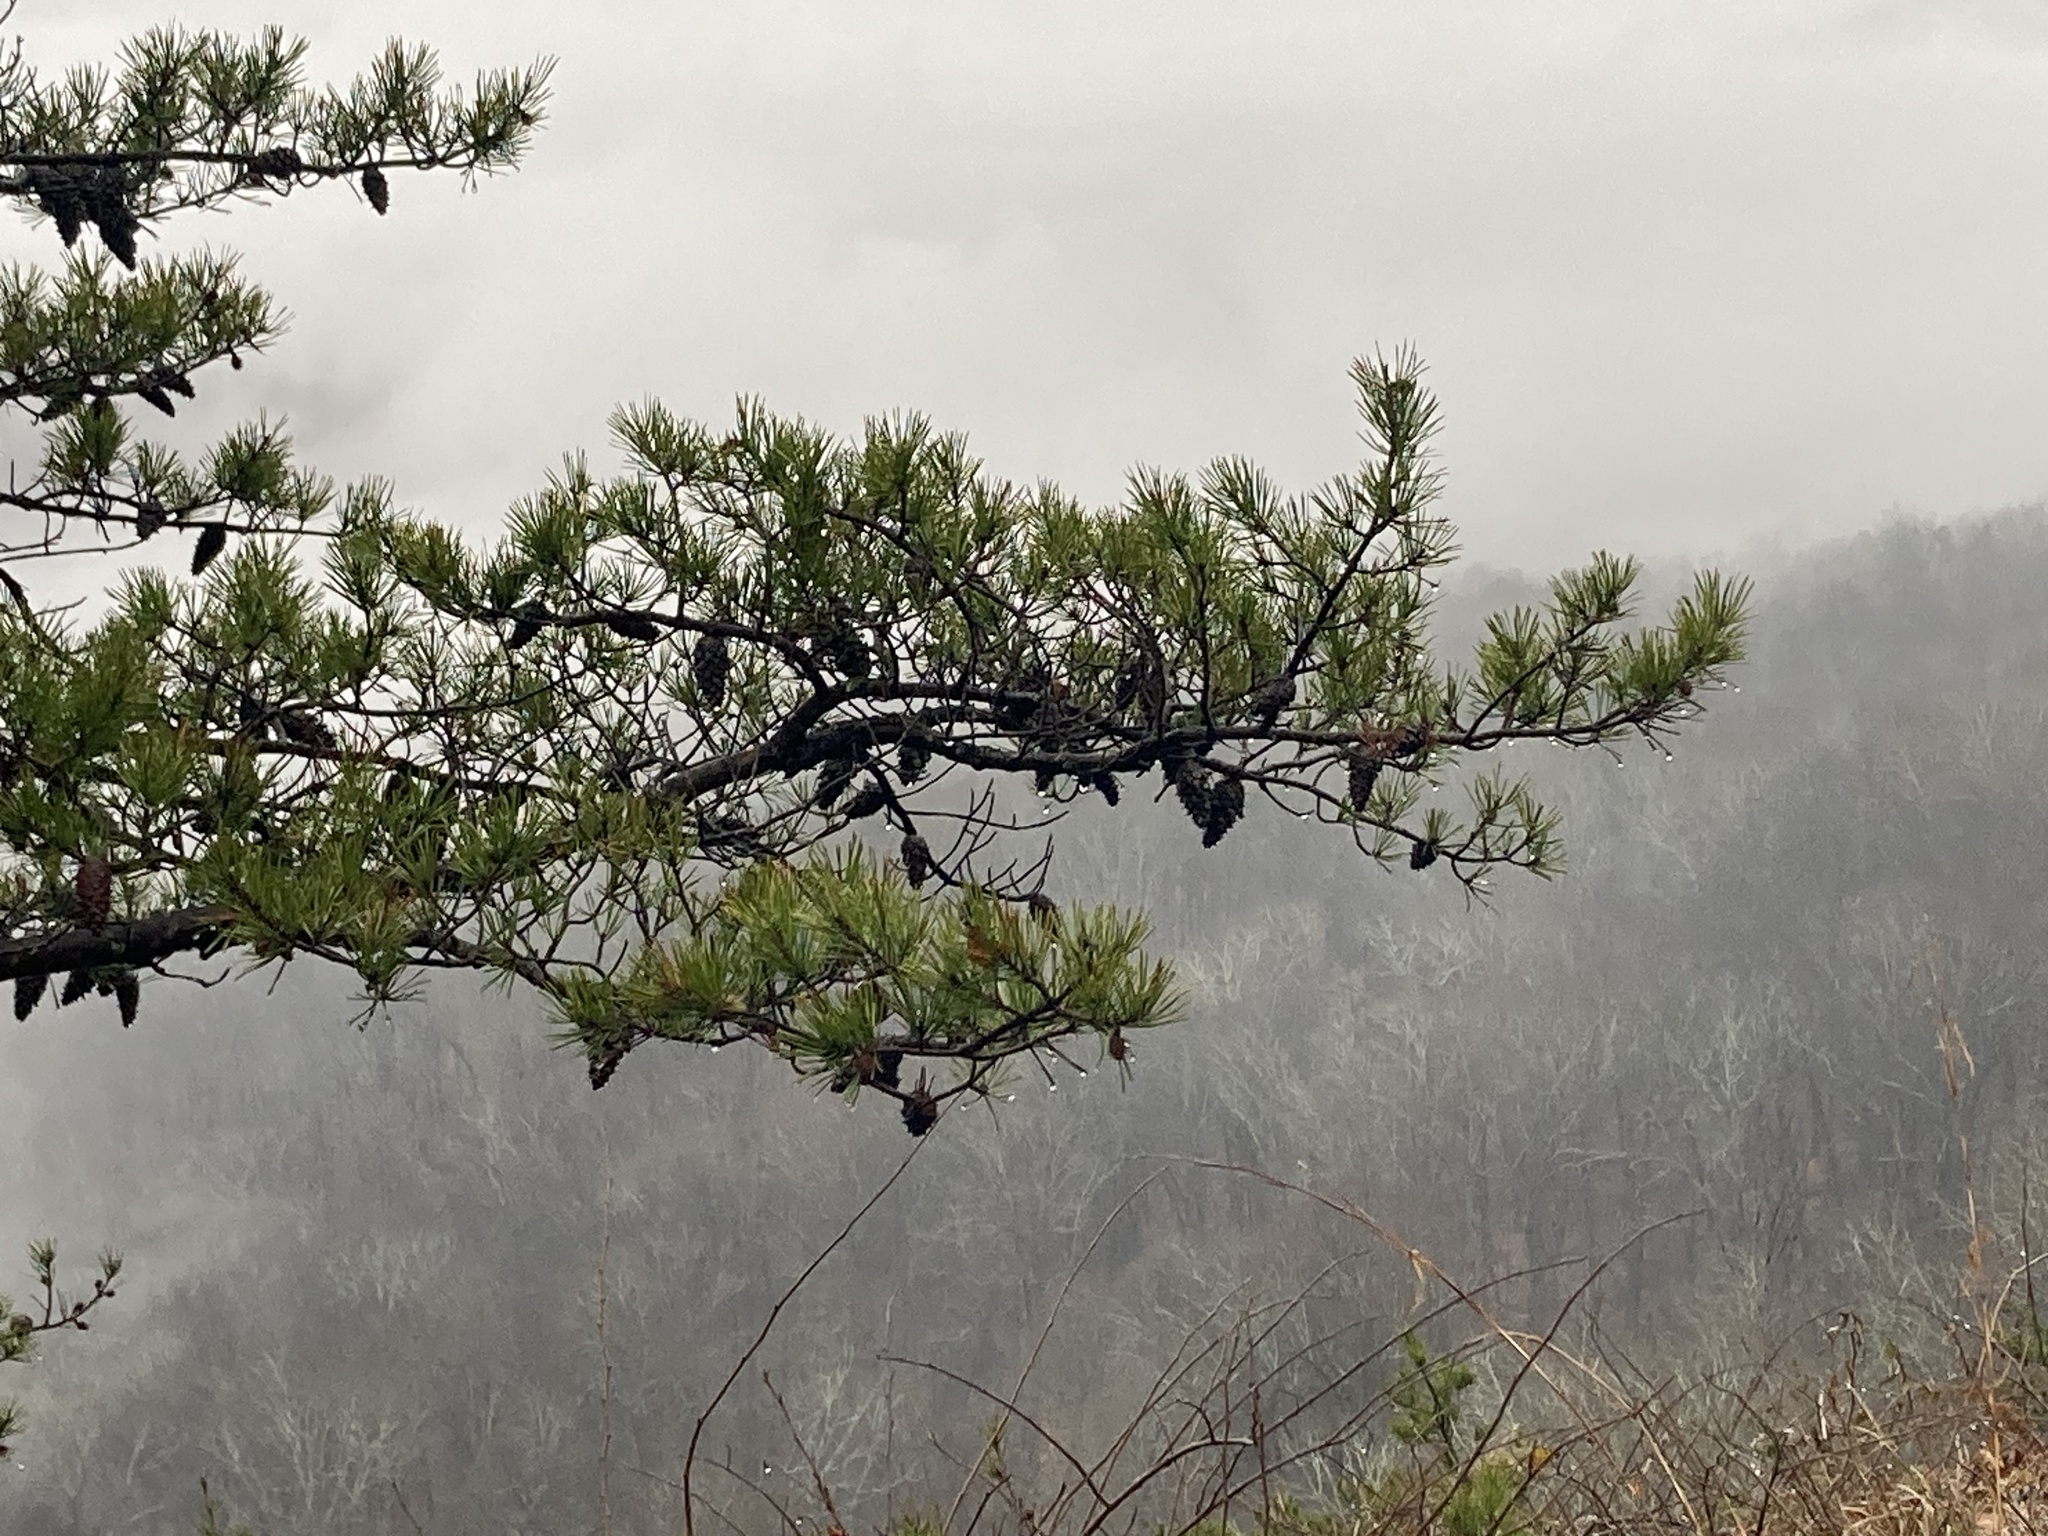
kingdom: Plantae
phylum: Tracheophyta
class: Pinopsida
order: Pinales
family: Pinaceae
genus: Pinus
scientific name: Pinus virginiana
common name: Scrub pine
